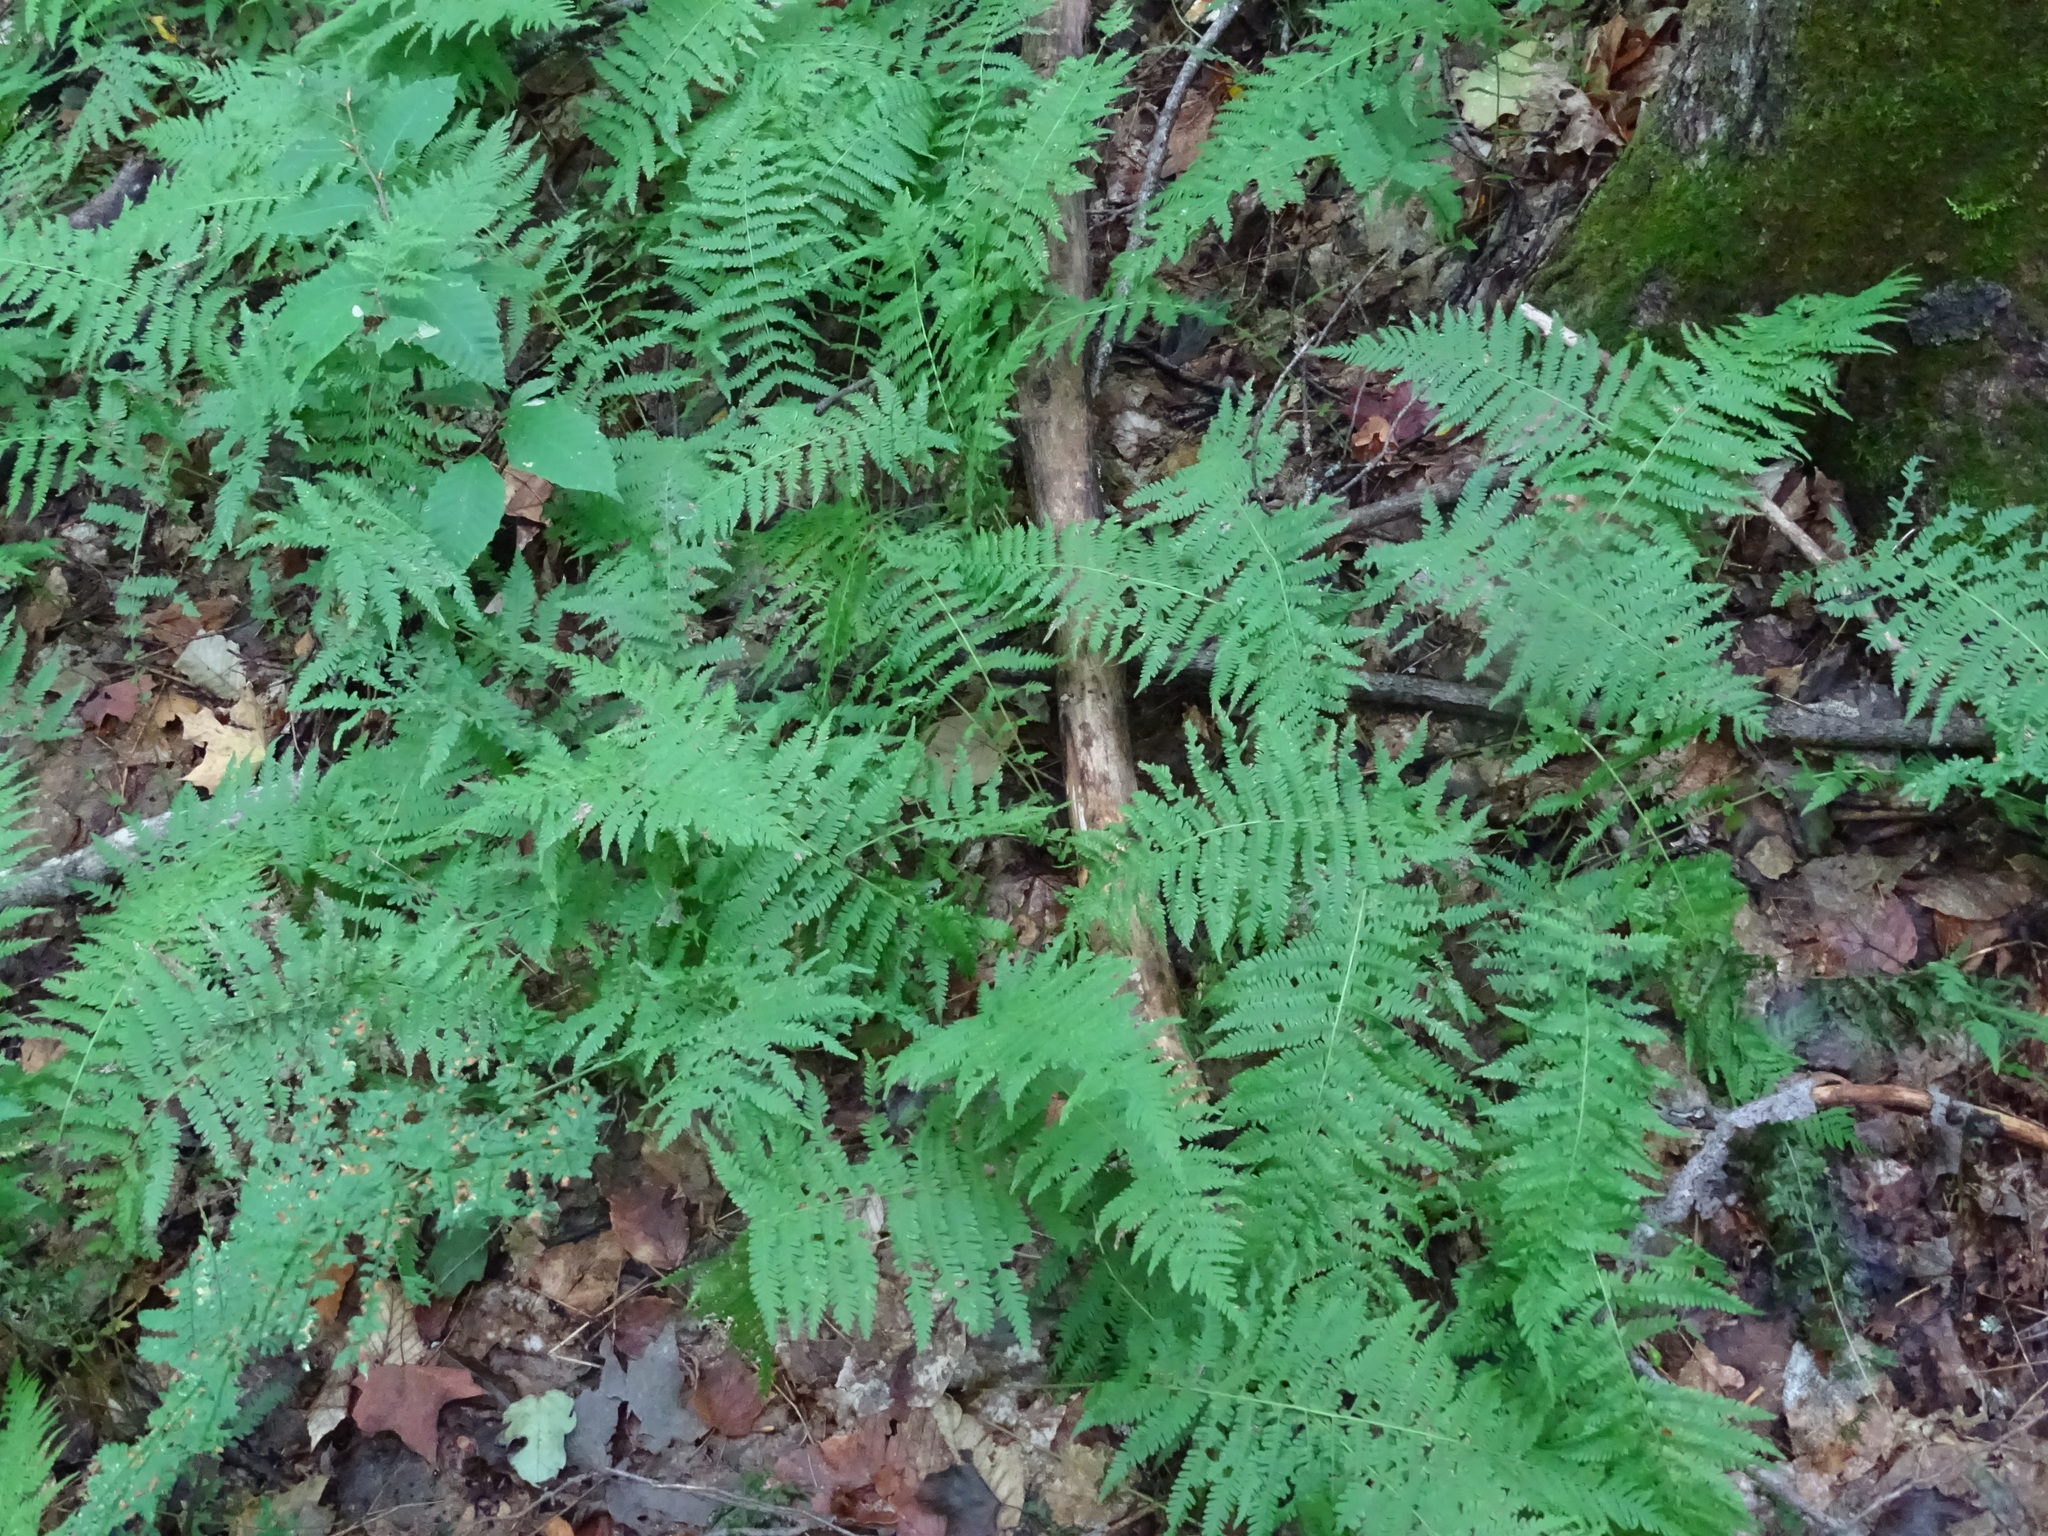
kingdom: Plantae
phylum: Tracheophyta
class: Polypodiopsida
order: Polypodiales
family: Thelypteridaceae
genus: Amauropelta
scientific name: Amauropelta noveboracensis
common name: New york fern
